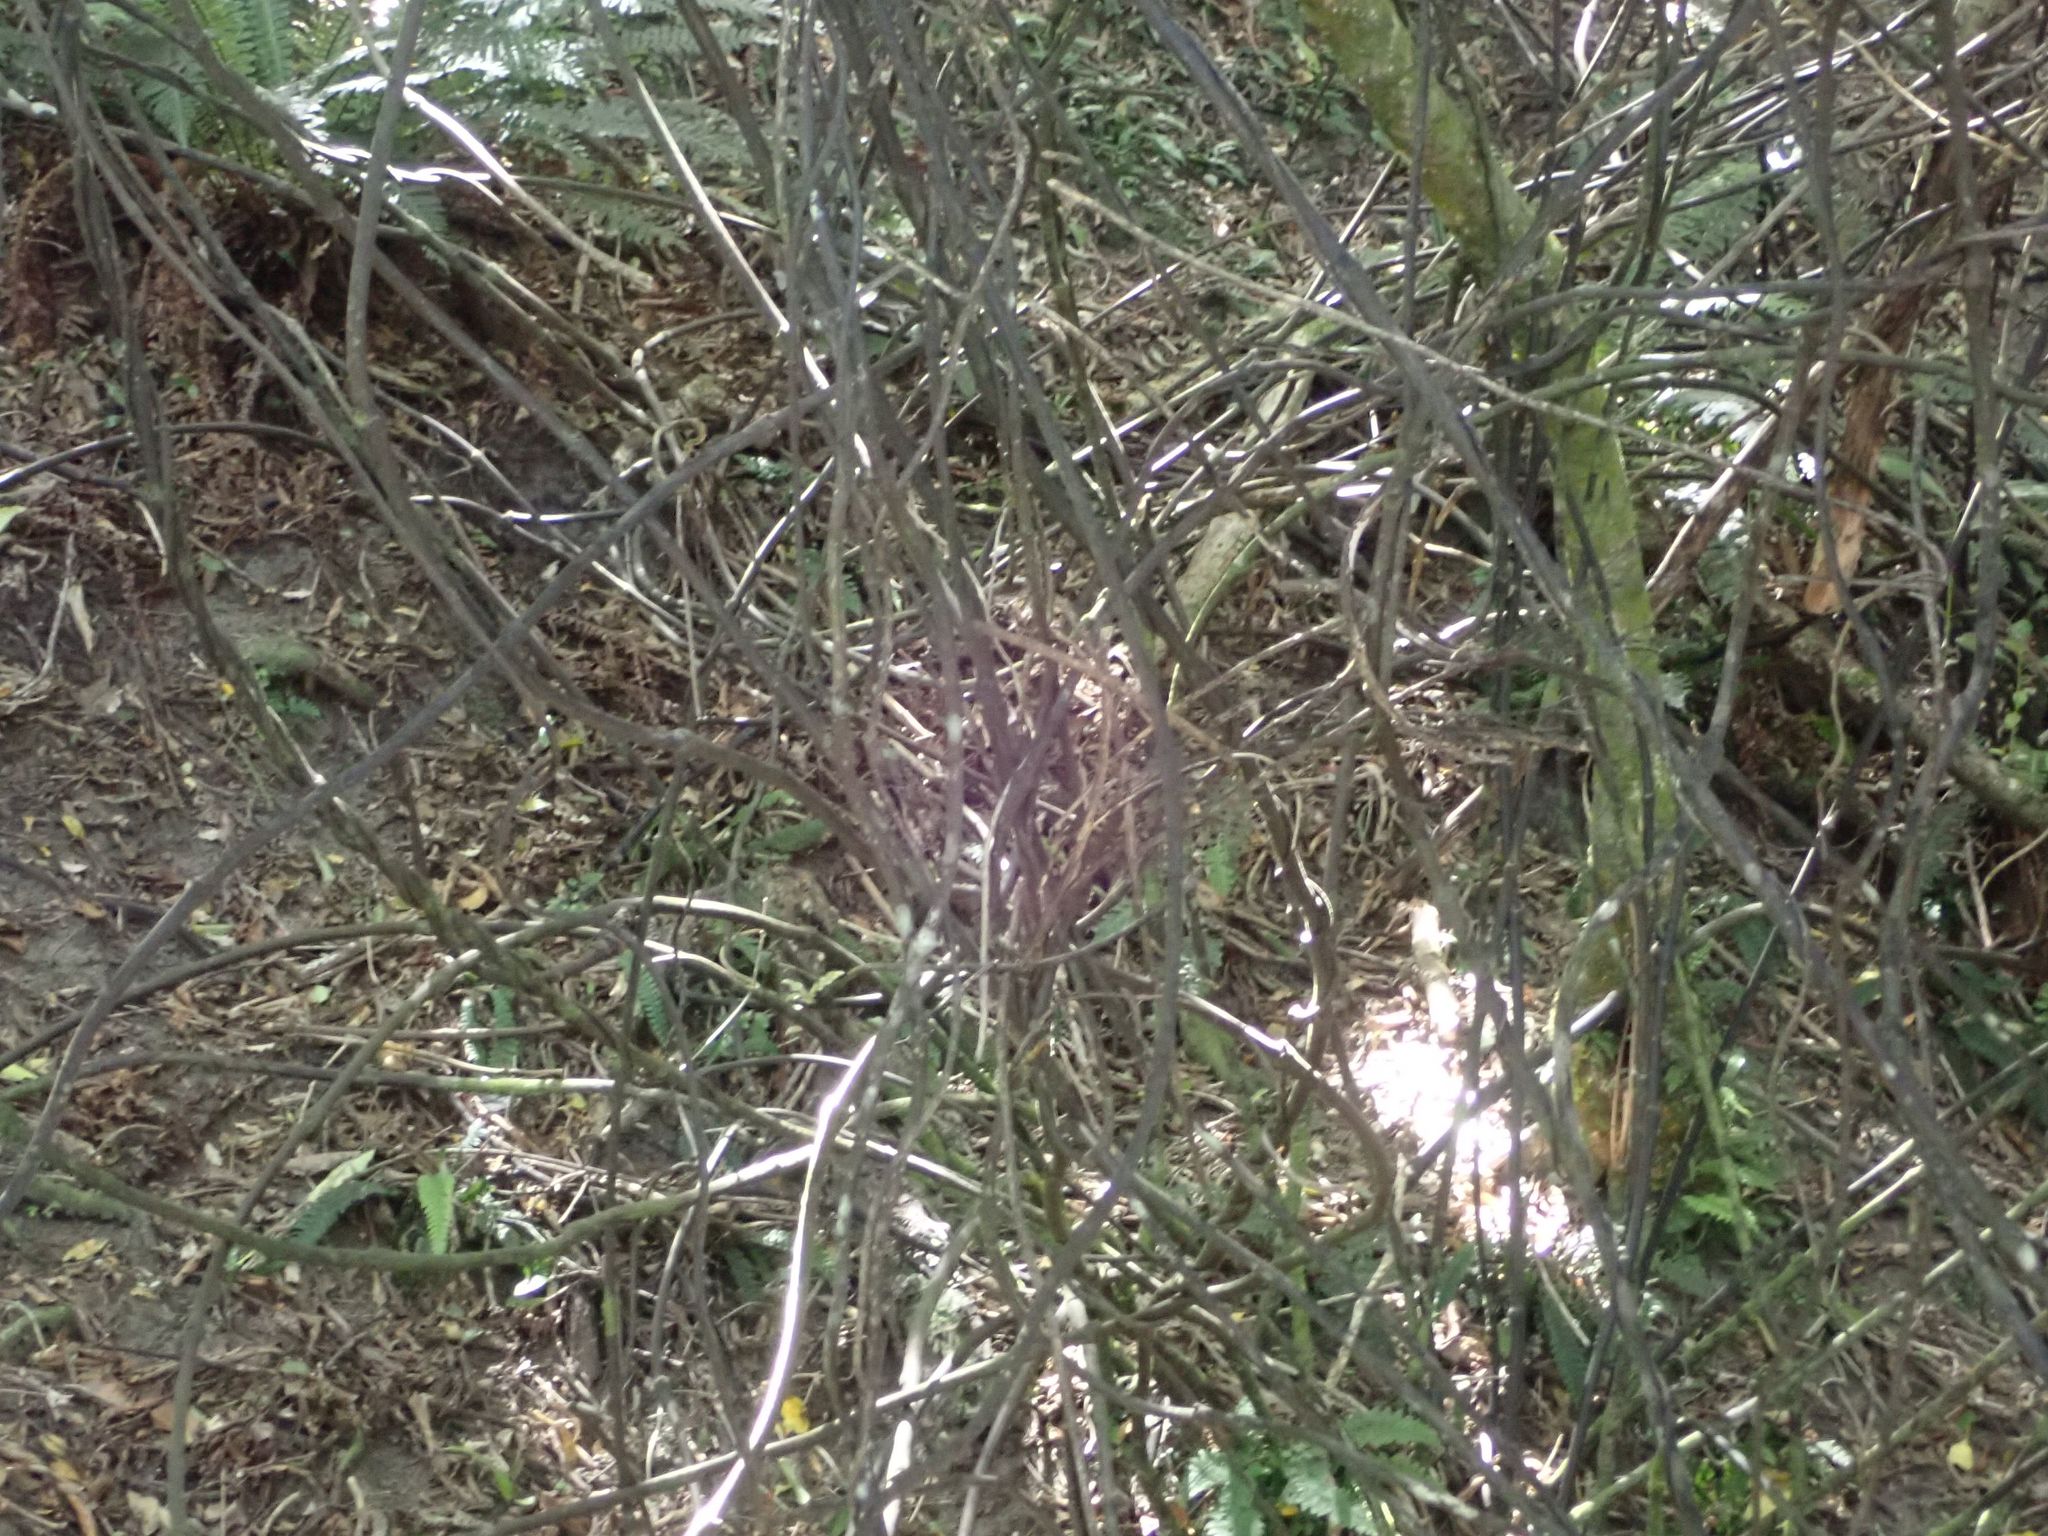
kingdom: Plantae
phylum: Tracheophyta
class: Liliopsida
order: Liliales
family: Ripogonaceae
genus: Ripogonum
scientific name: Ripogonum scandens
